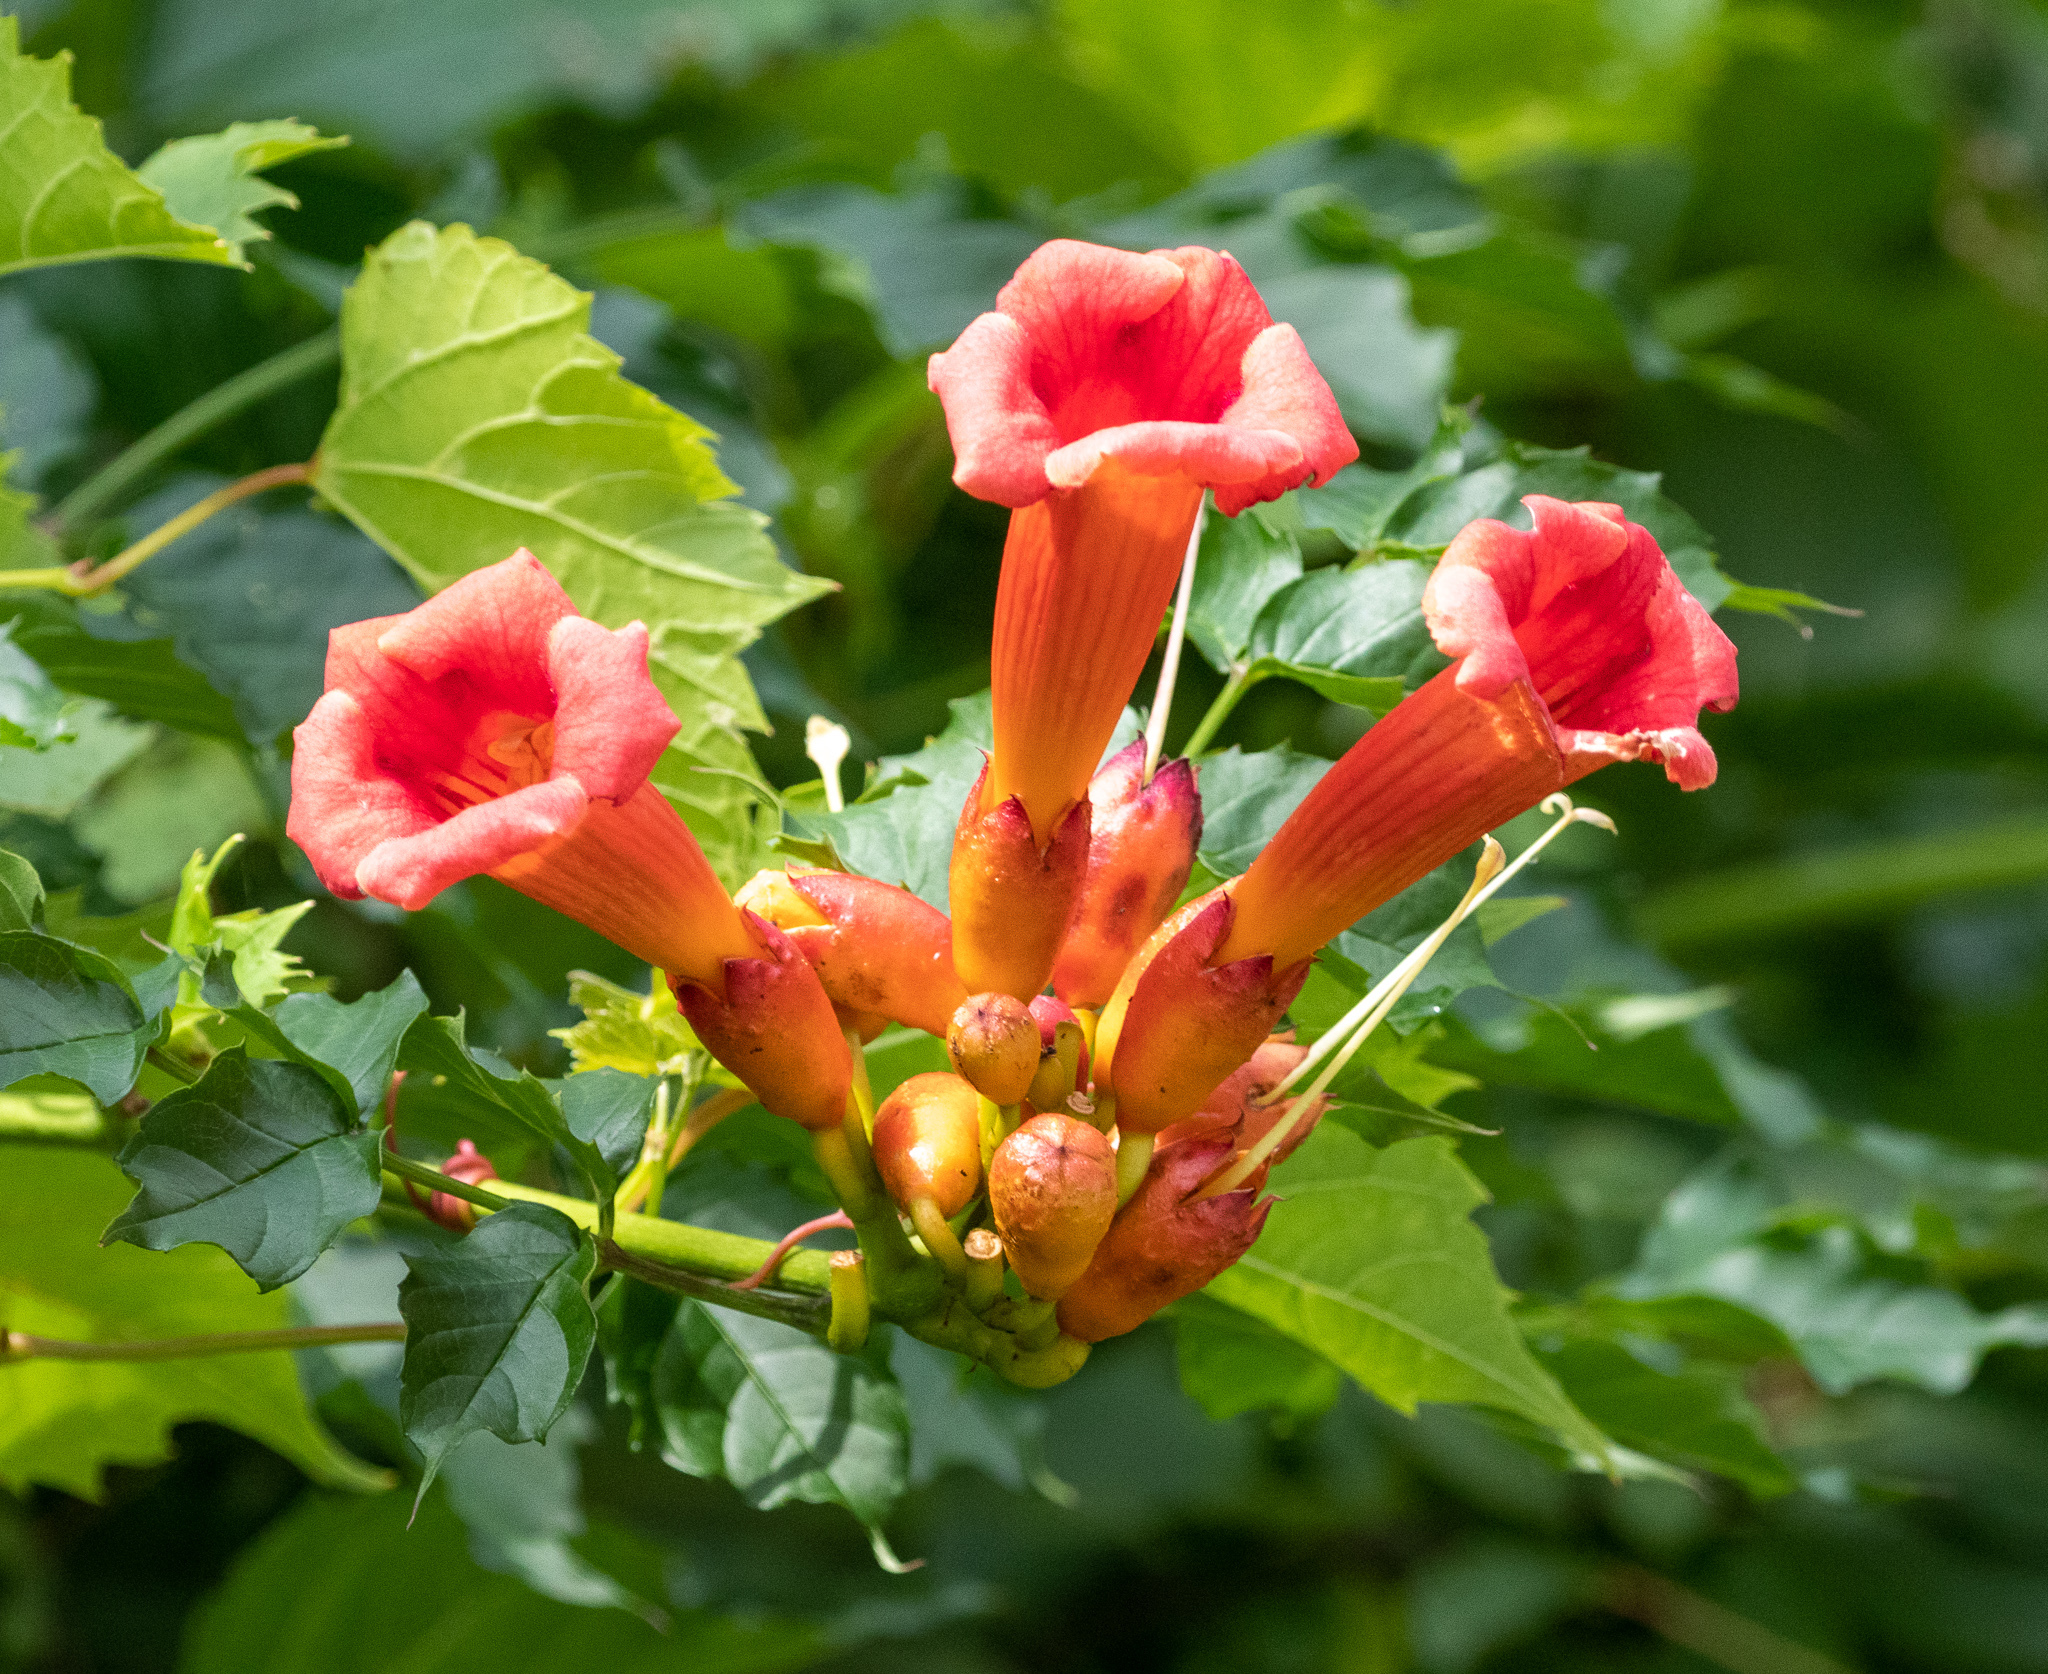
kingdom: Plantae
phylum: Tracheophyta
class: Magnoliopsida
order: Lamiales
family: Bignoniaceae
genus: Campsis
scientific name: Campsis radicans
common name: Trumpet-creeper
